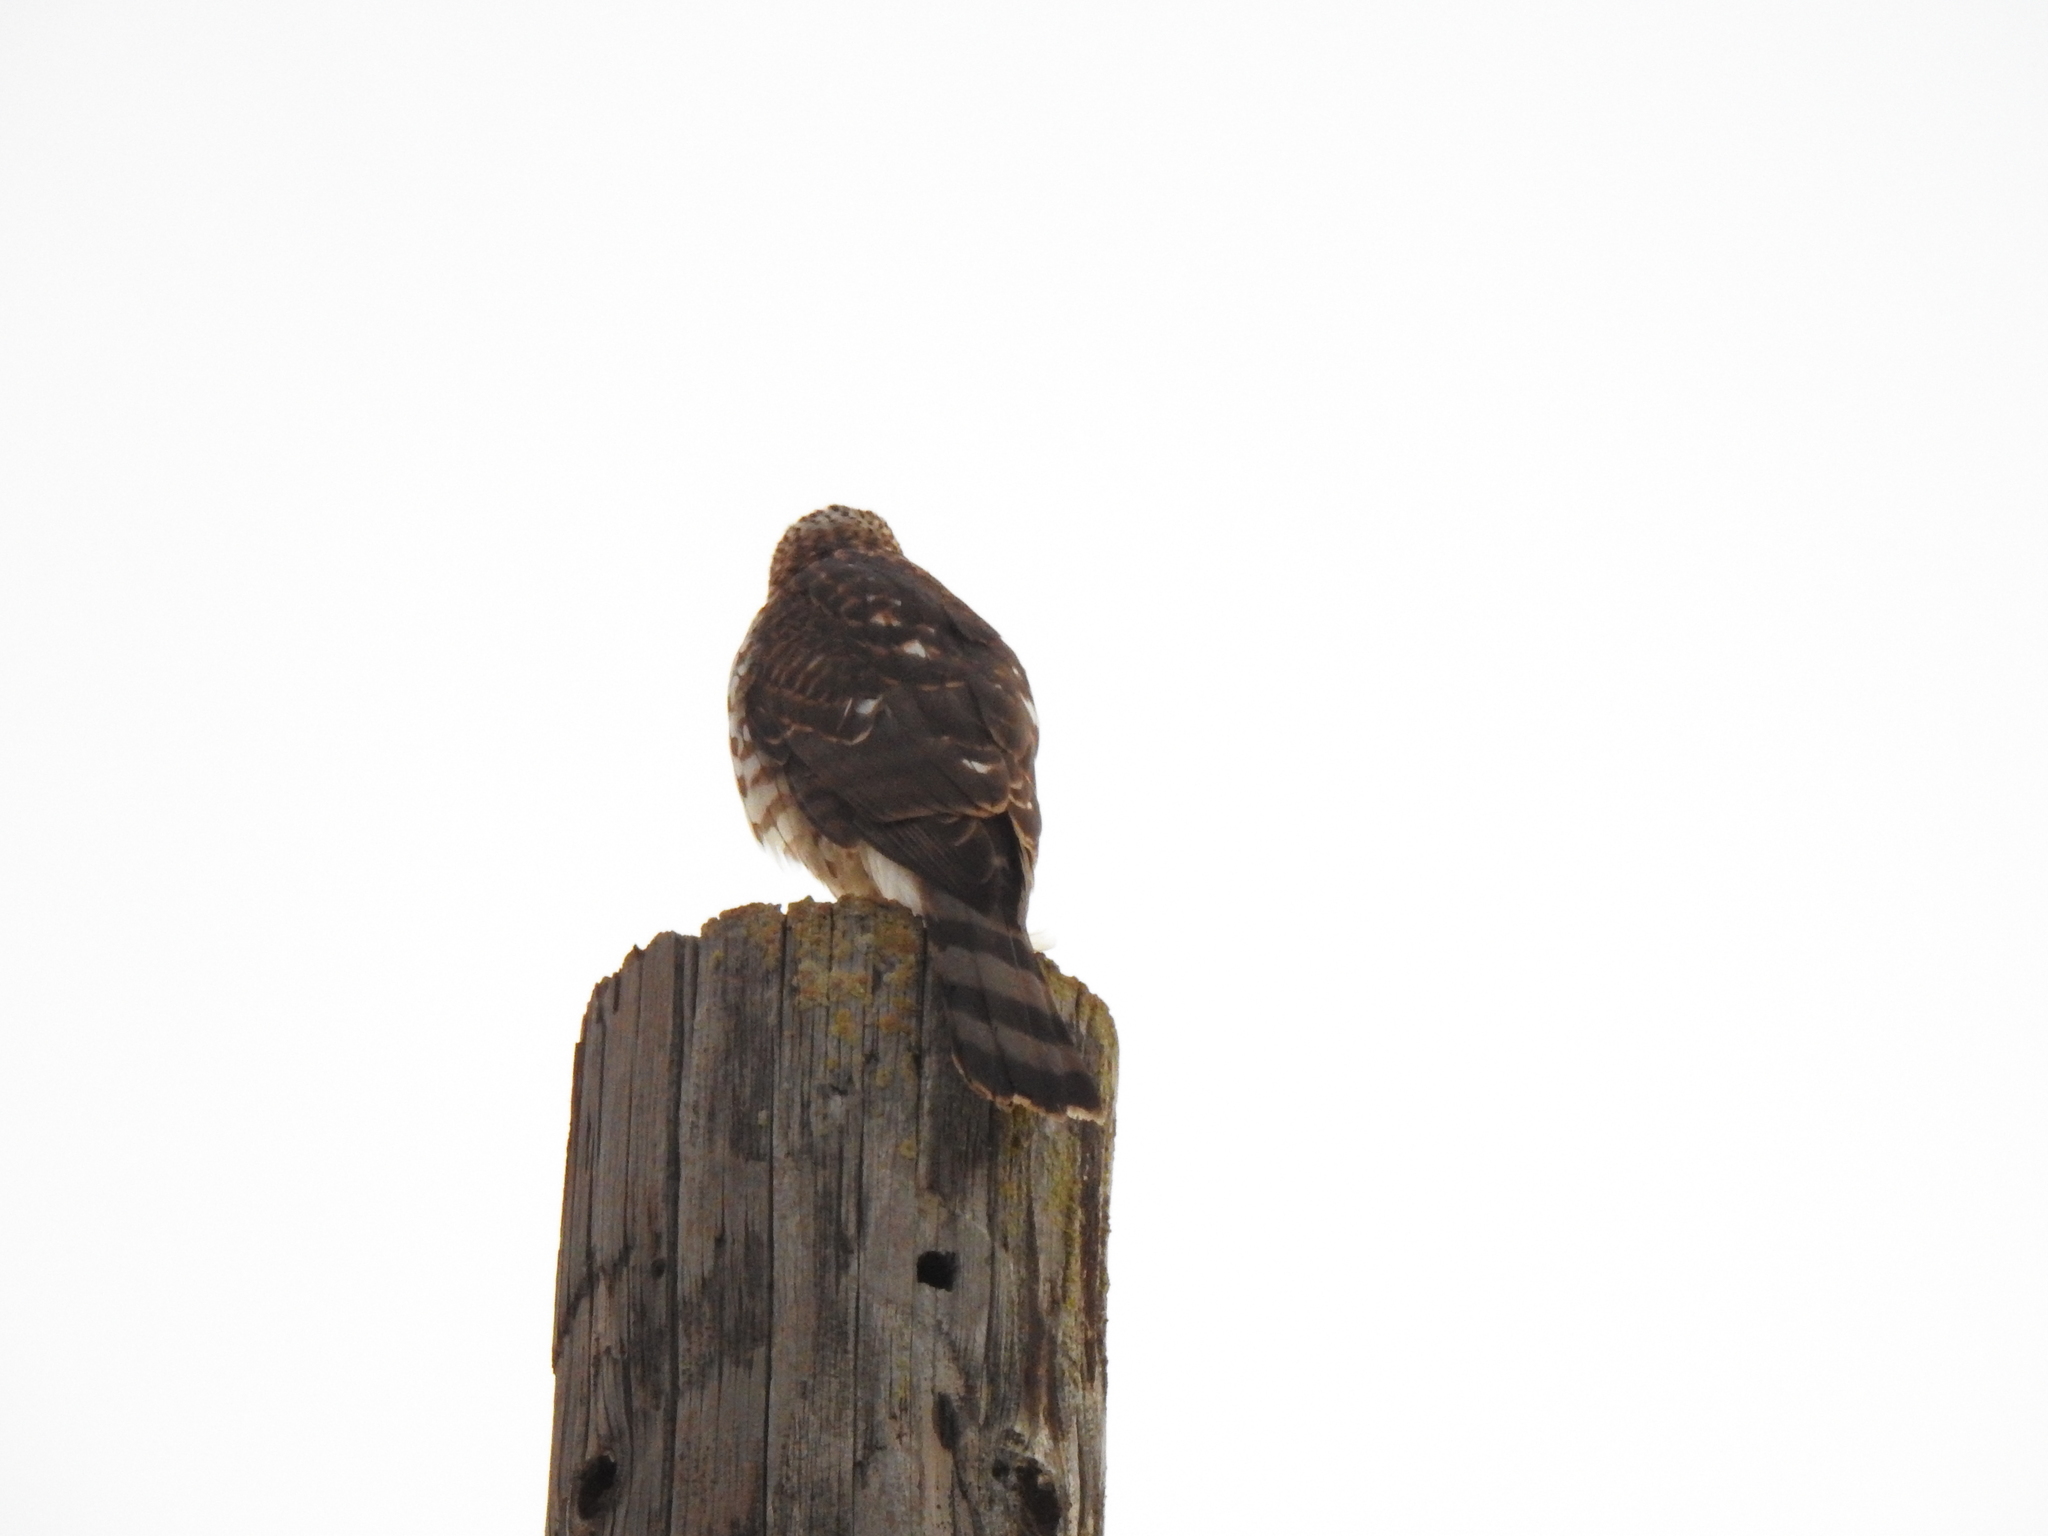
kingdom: Animalia
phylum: Chordata
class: Aves
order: Accipitriformes
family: Accipitridae
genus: Accipiter
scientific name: Accipiter cooperii
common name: Cooper's hawk
